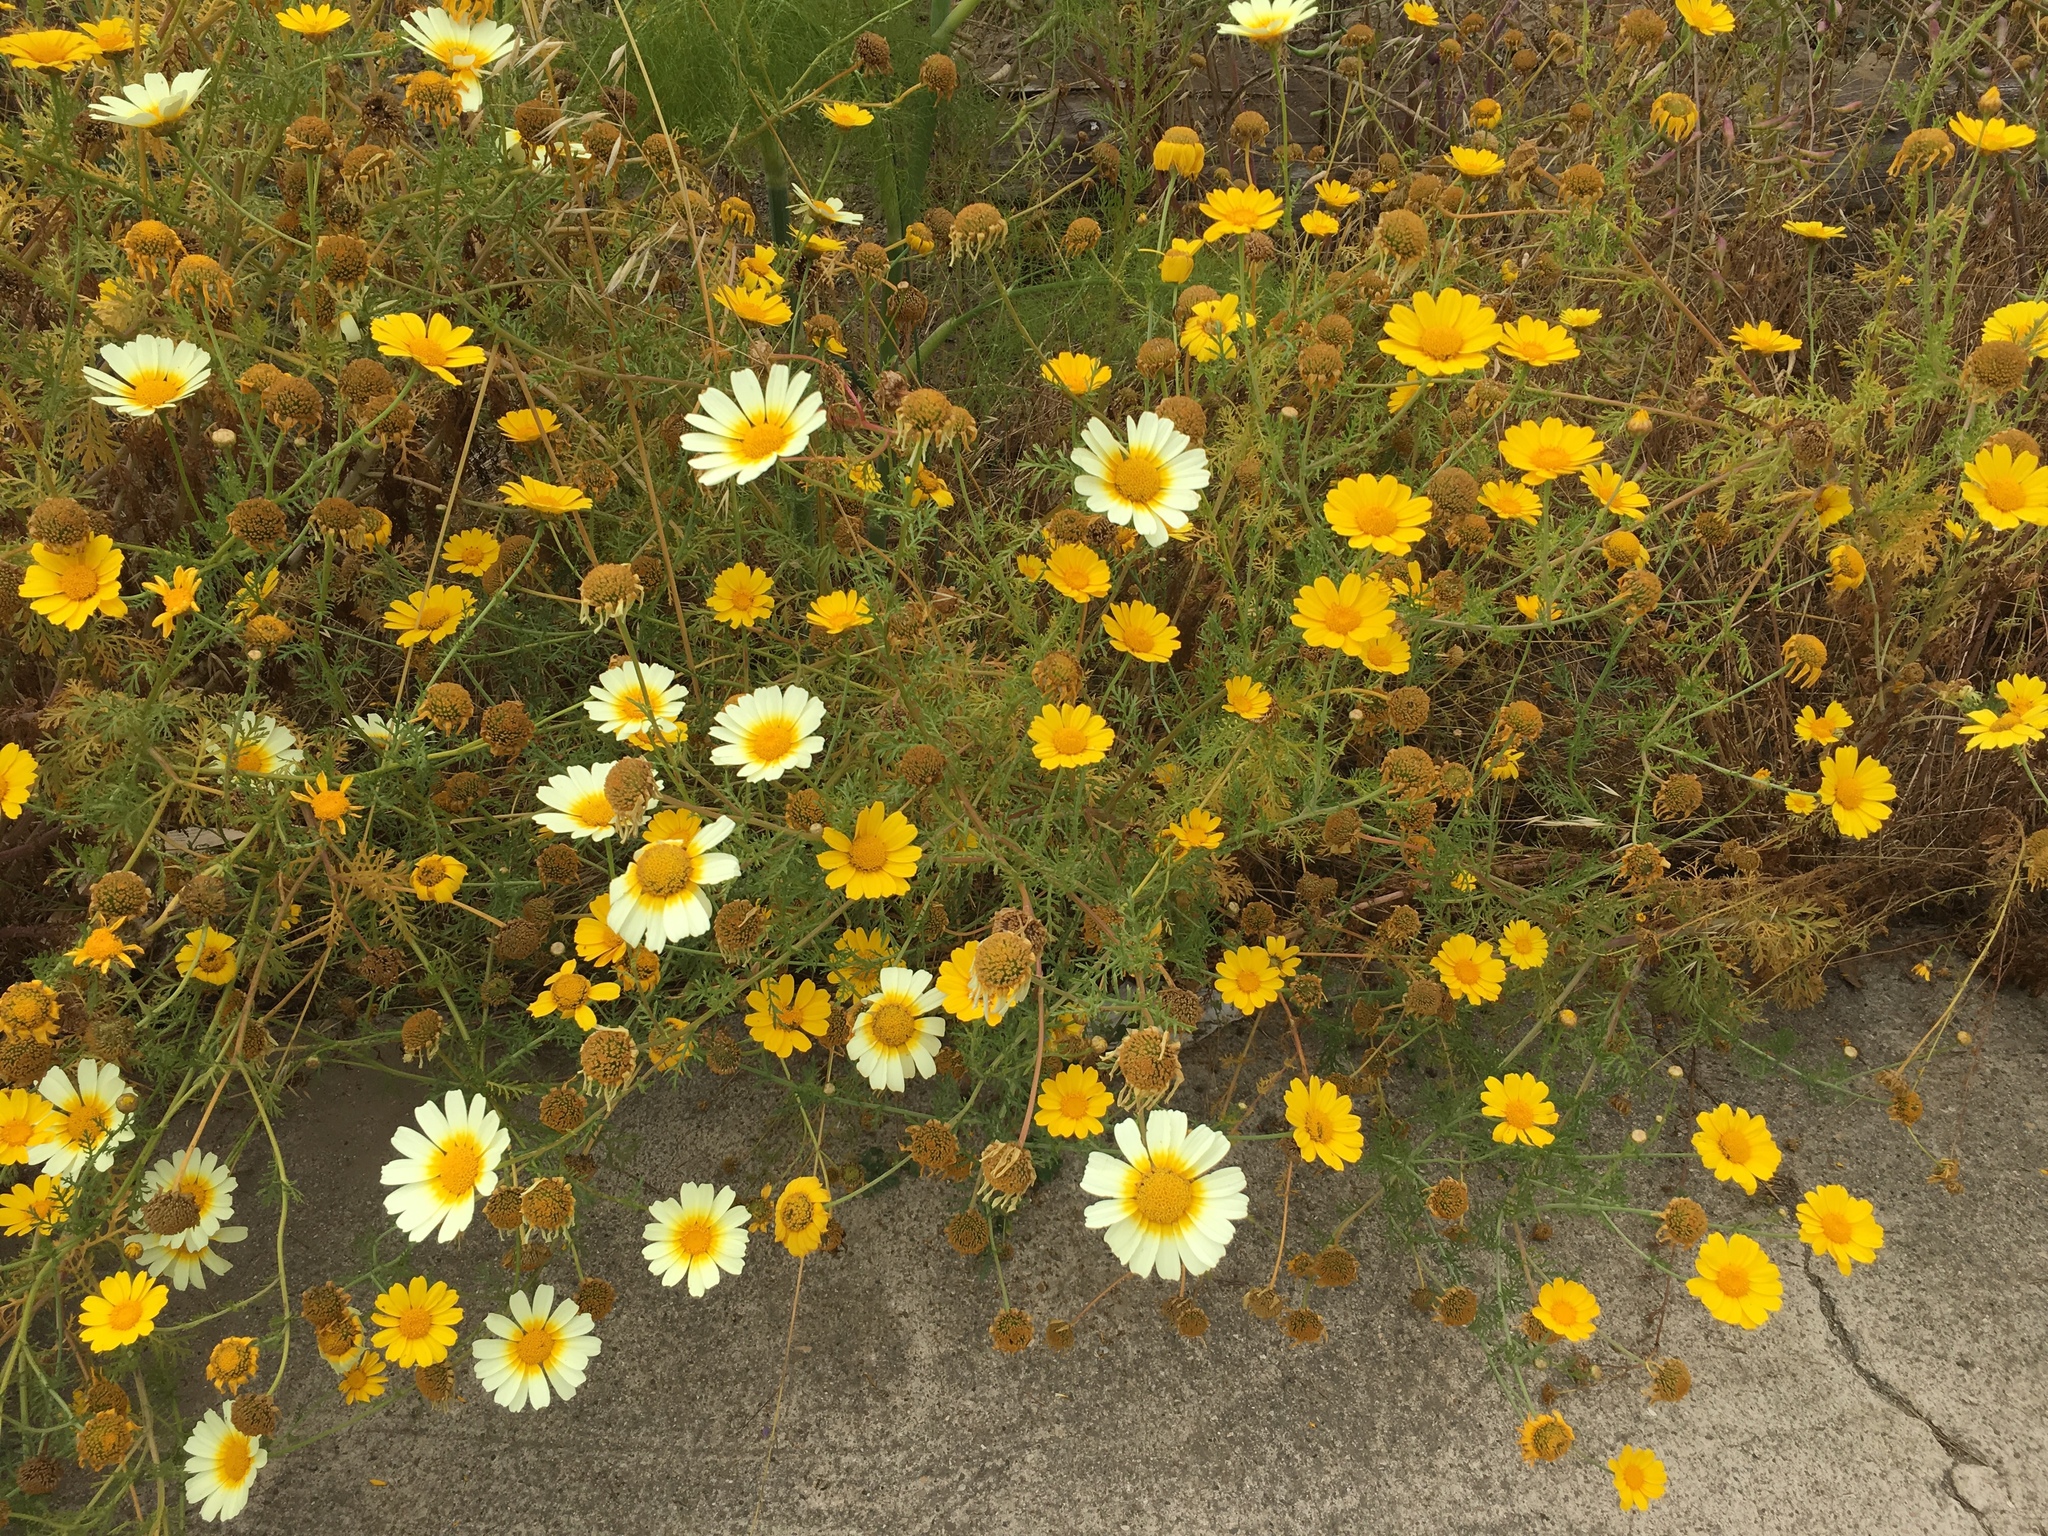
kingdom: Plantae
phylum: Tracheophyta
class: Magnoliopsida
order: Asterales
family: Asteraceae
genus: Glebionis
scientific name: Glebionis coronaria
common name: Crowndaisy
